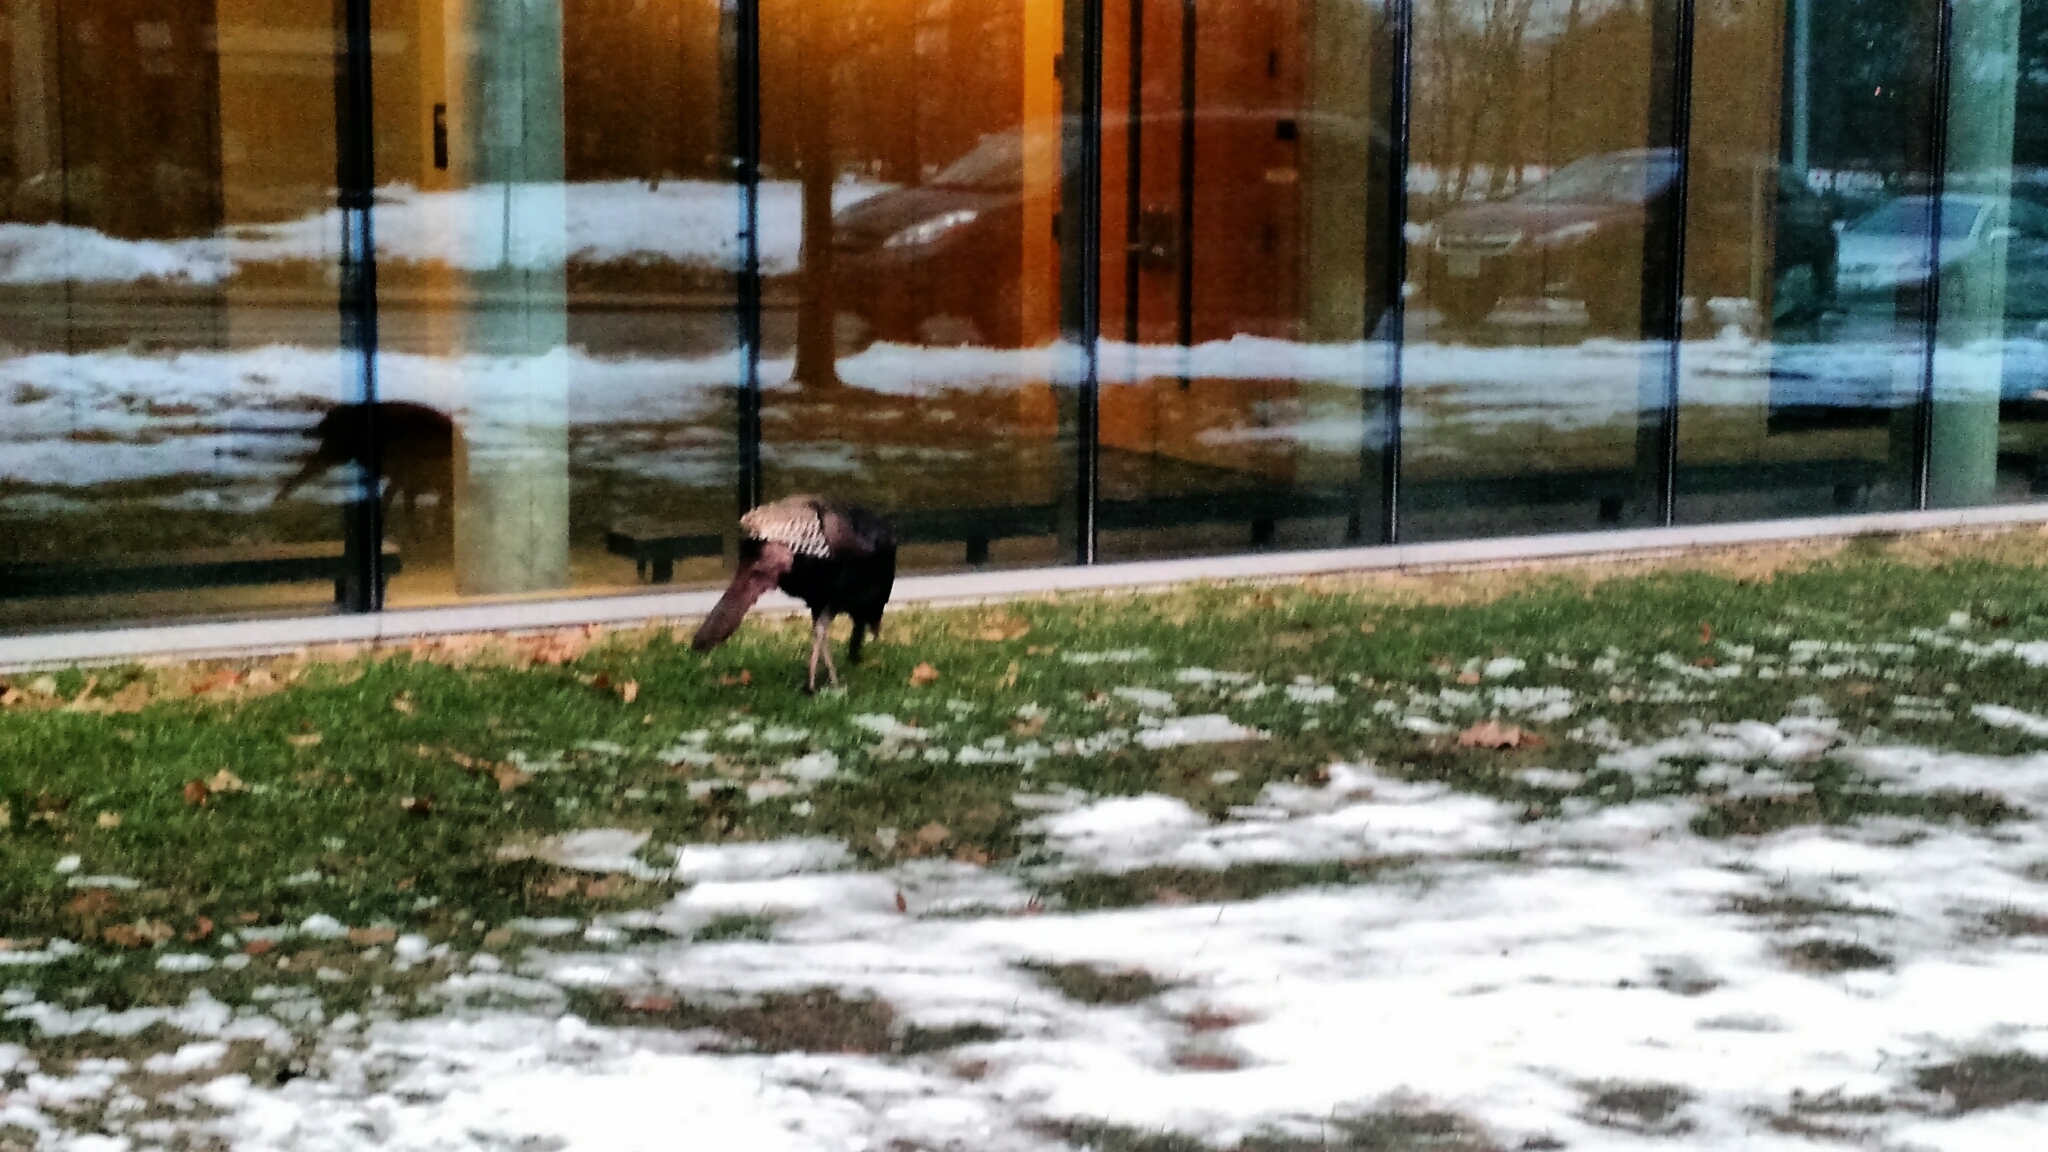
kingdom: Animalia
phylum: Chordata
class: Aves
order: Galliformes
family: Phasianidae
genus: Meleagris
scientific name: Meleagris gallopavo
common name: Wild turkey
